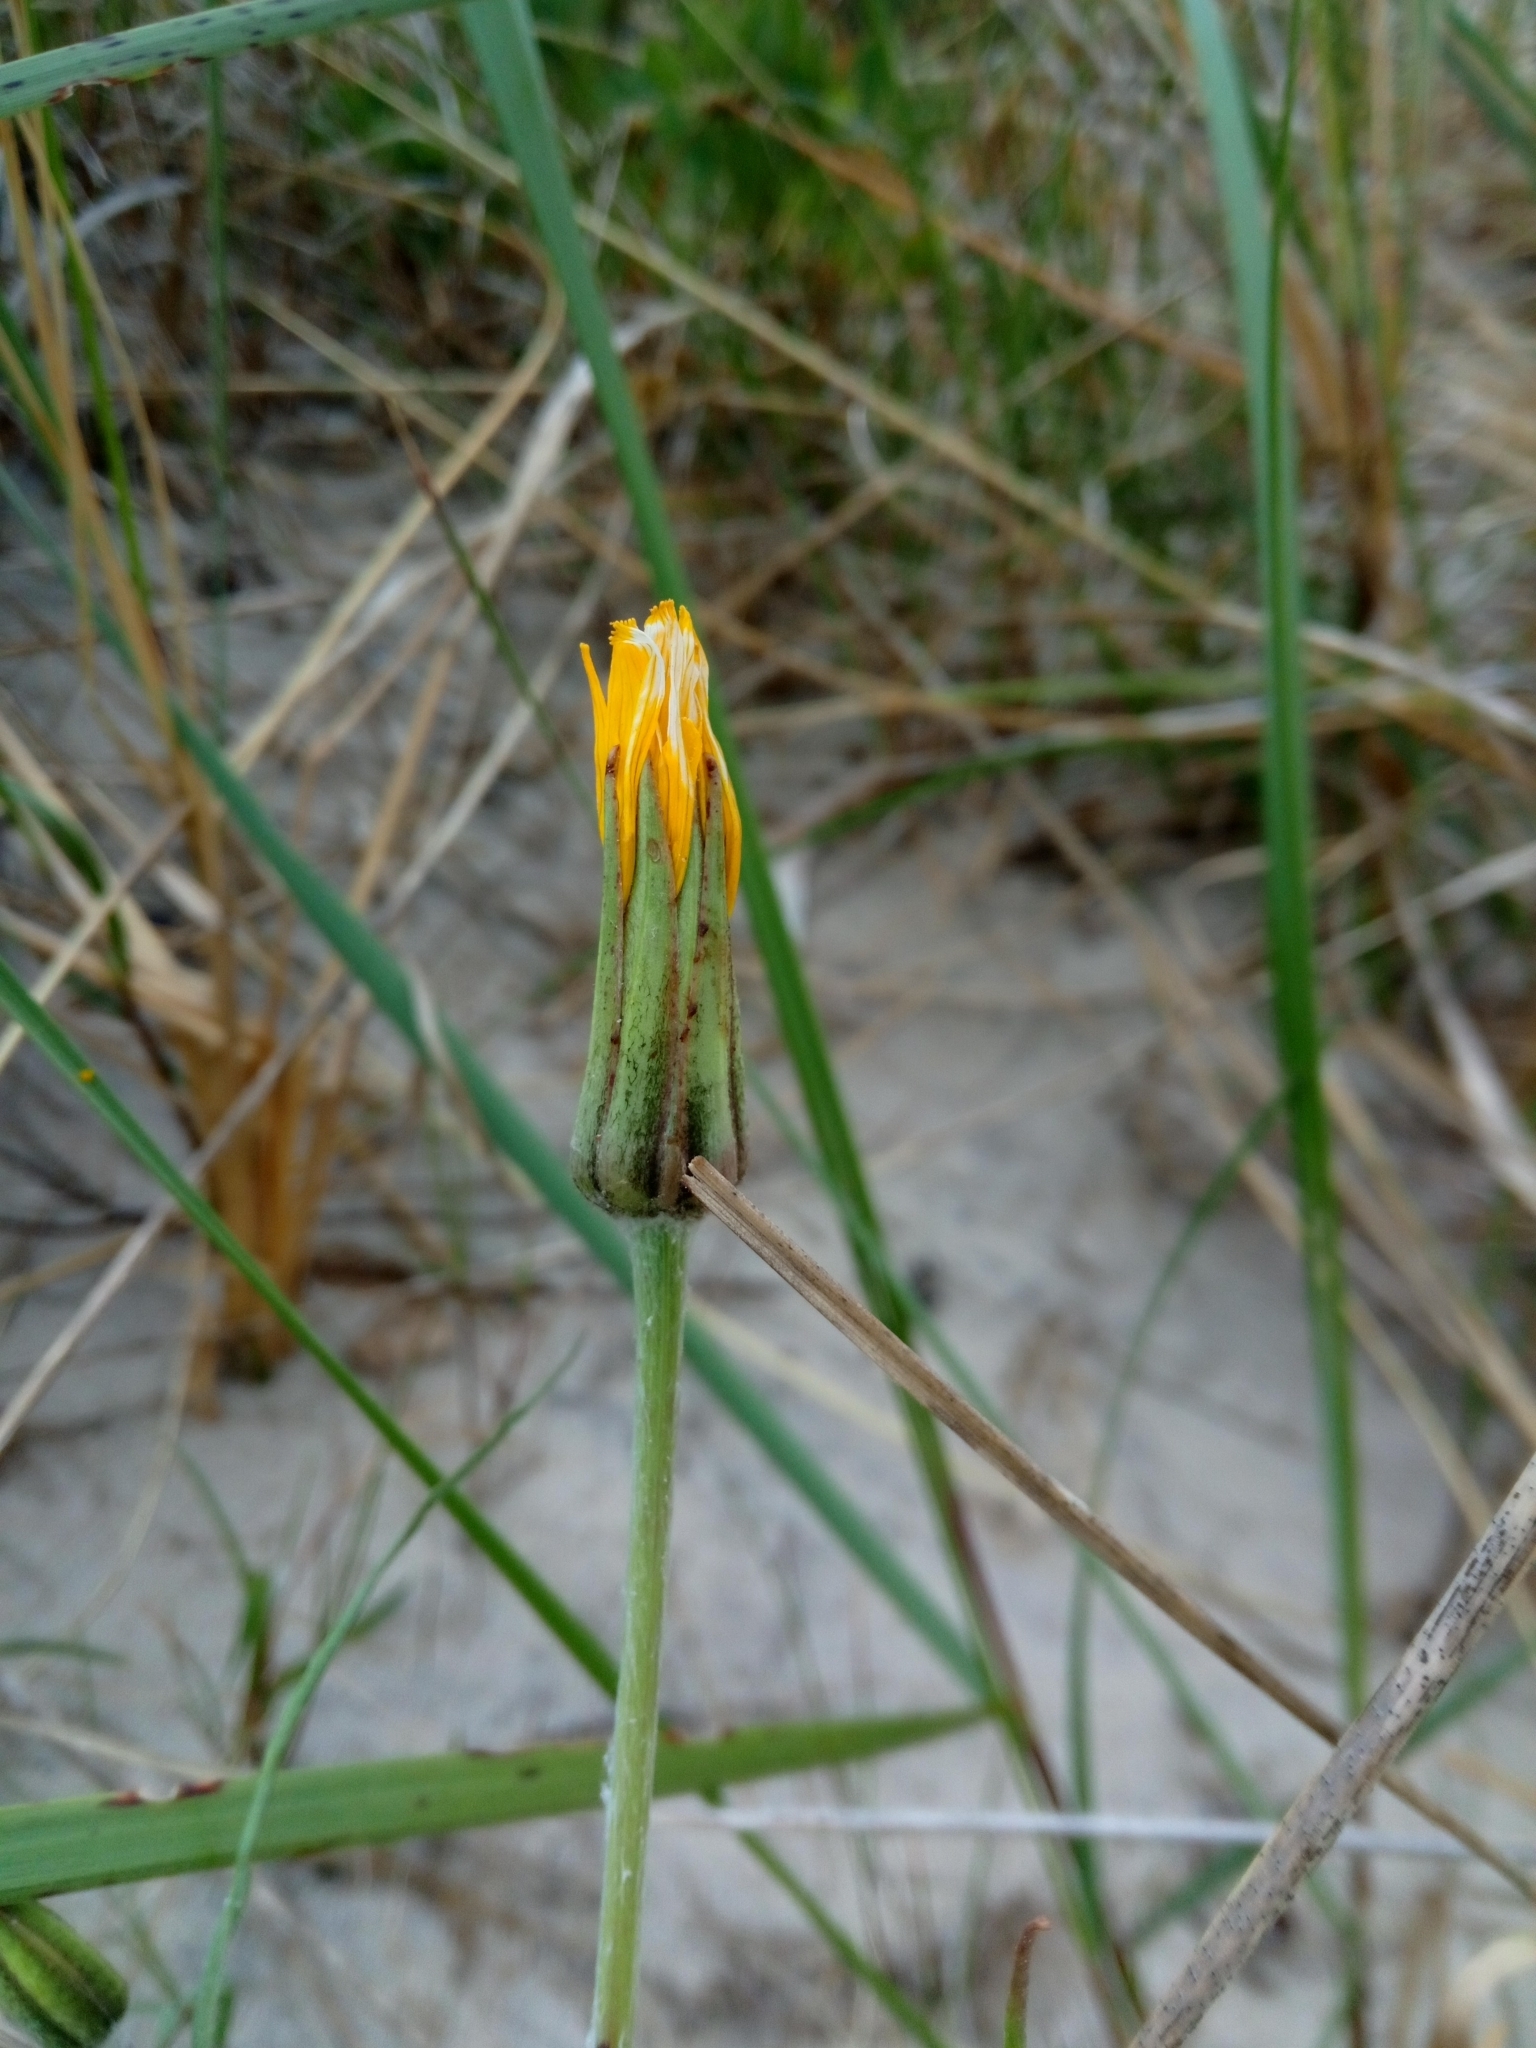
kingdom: Plantae
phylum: Tracheophyta
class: Magnoliopsida
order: Asterales
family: Asteraceae
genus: Tragopogon
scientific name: Tragopogon heterospermus
